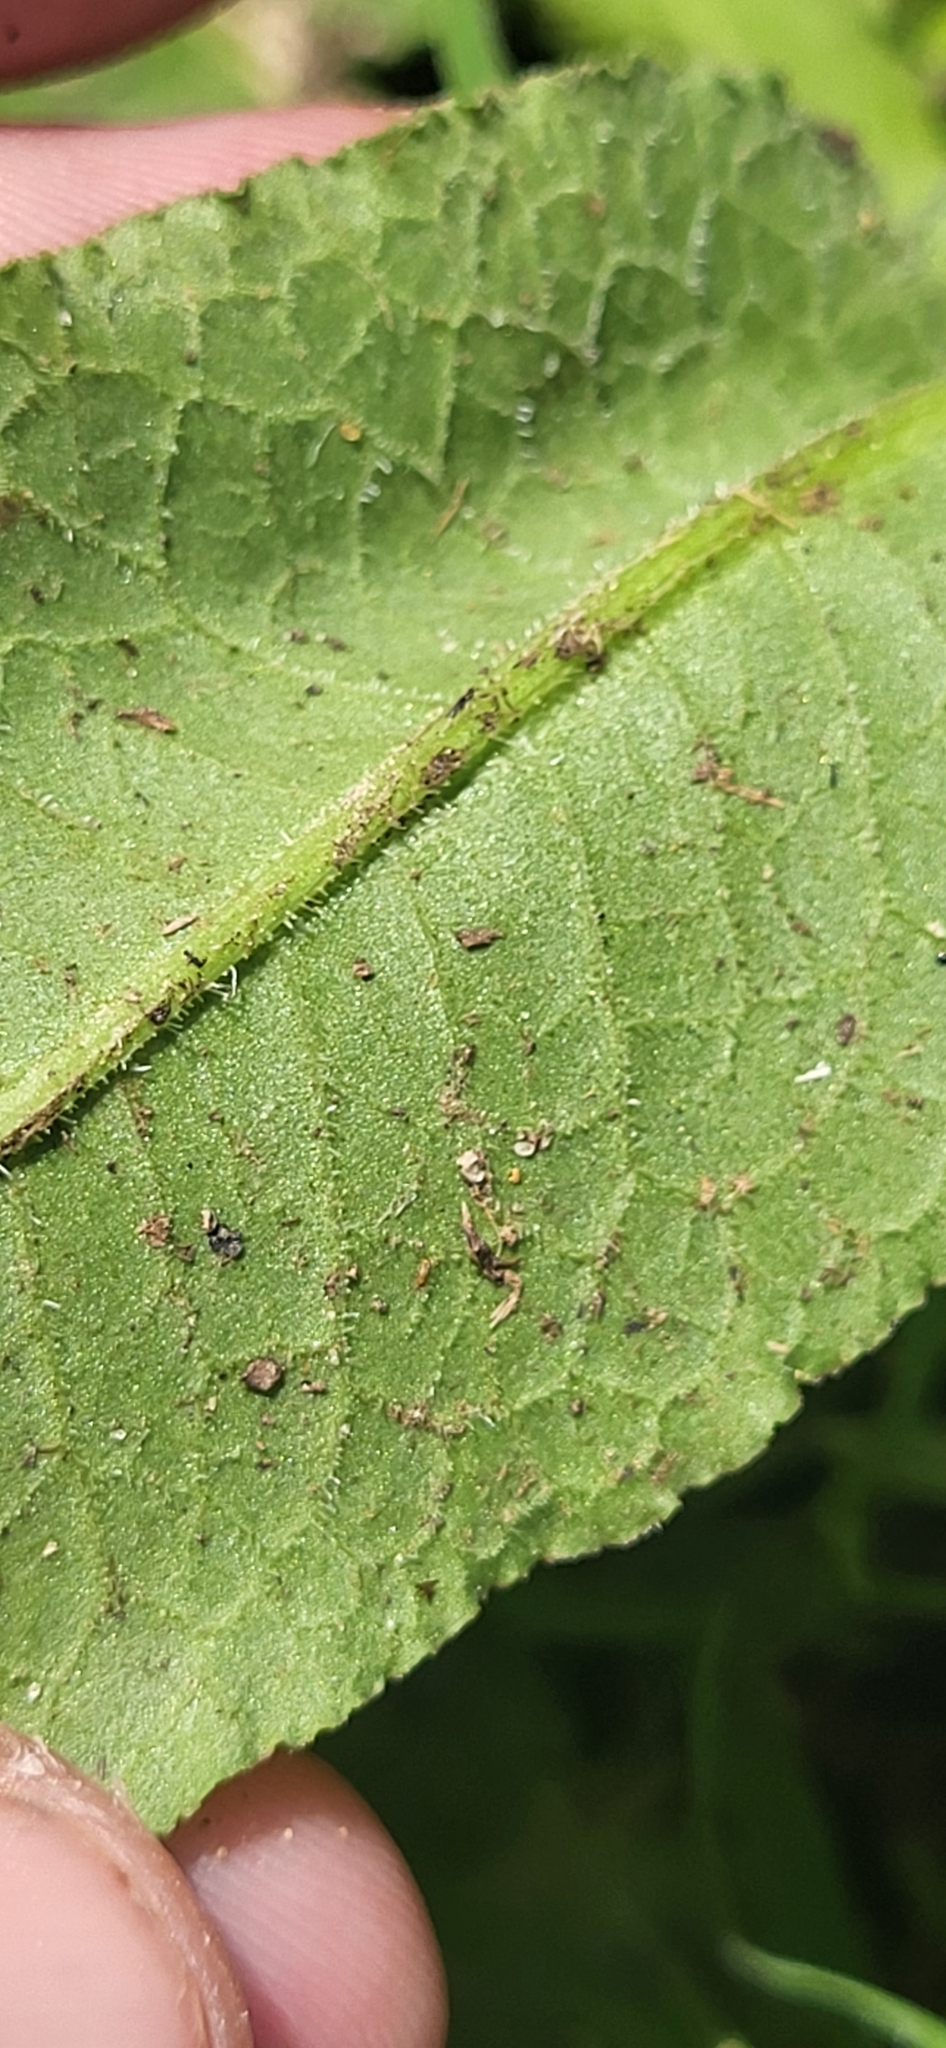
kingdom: Plantae
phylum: Tracheophyta
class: Magnoliopsida
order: Caryophyllales
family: Polygonaceae
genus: Rumex
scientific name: Rumex pulcher
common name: Fiddle dock
